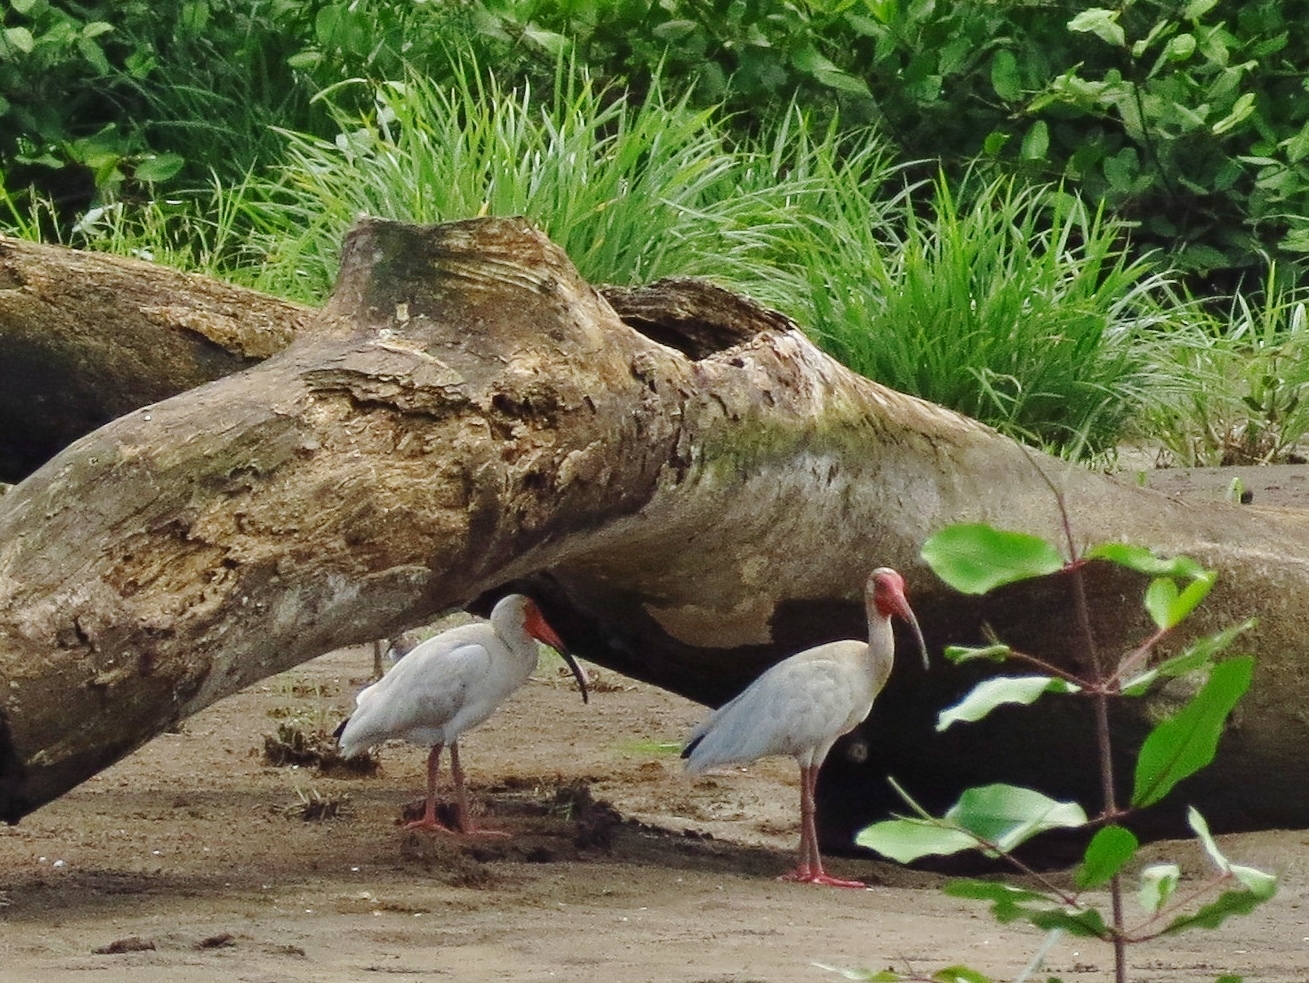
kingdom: Animalia
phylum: Chordata
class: Aves
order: Pelecaniformes
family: Threskiornithidae
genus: Eudocimus
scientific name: Eudocimus albus
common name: White ibis
